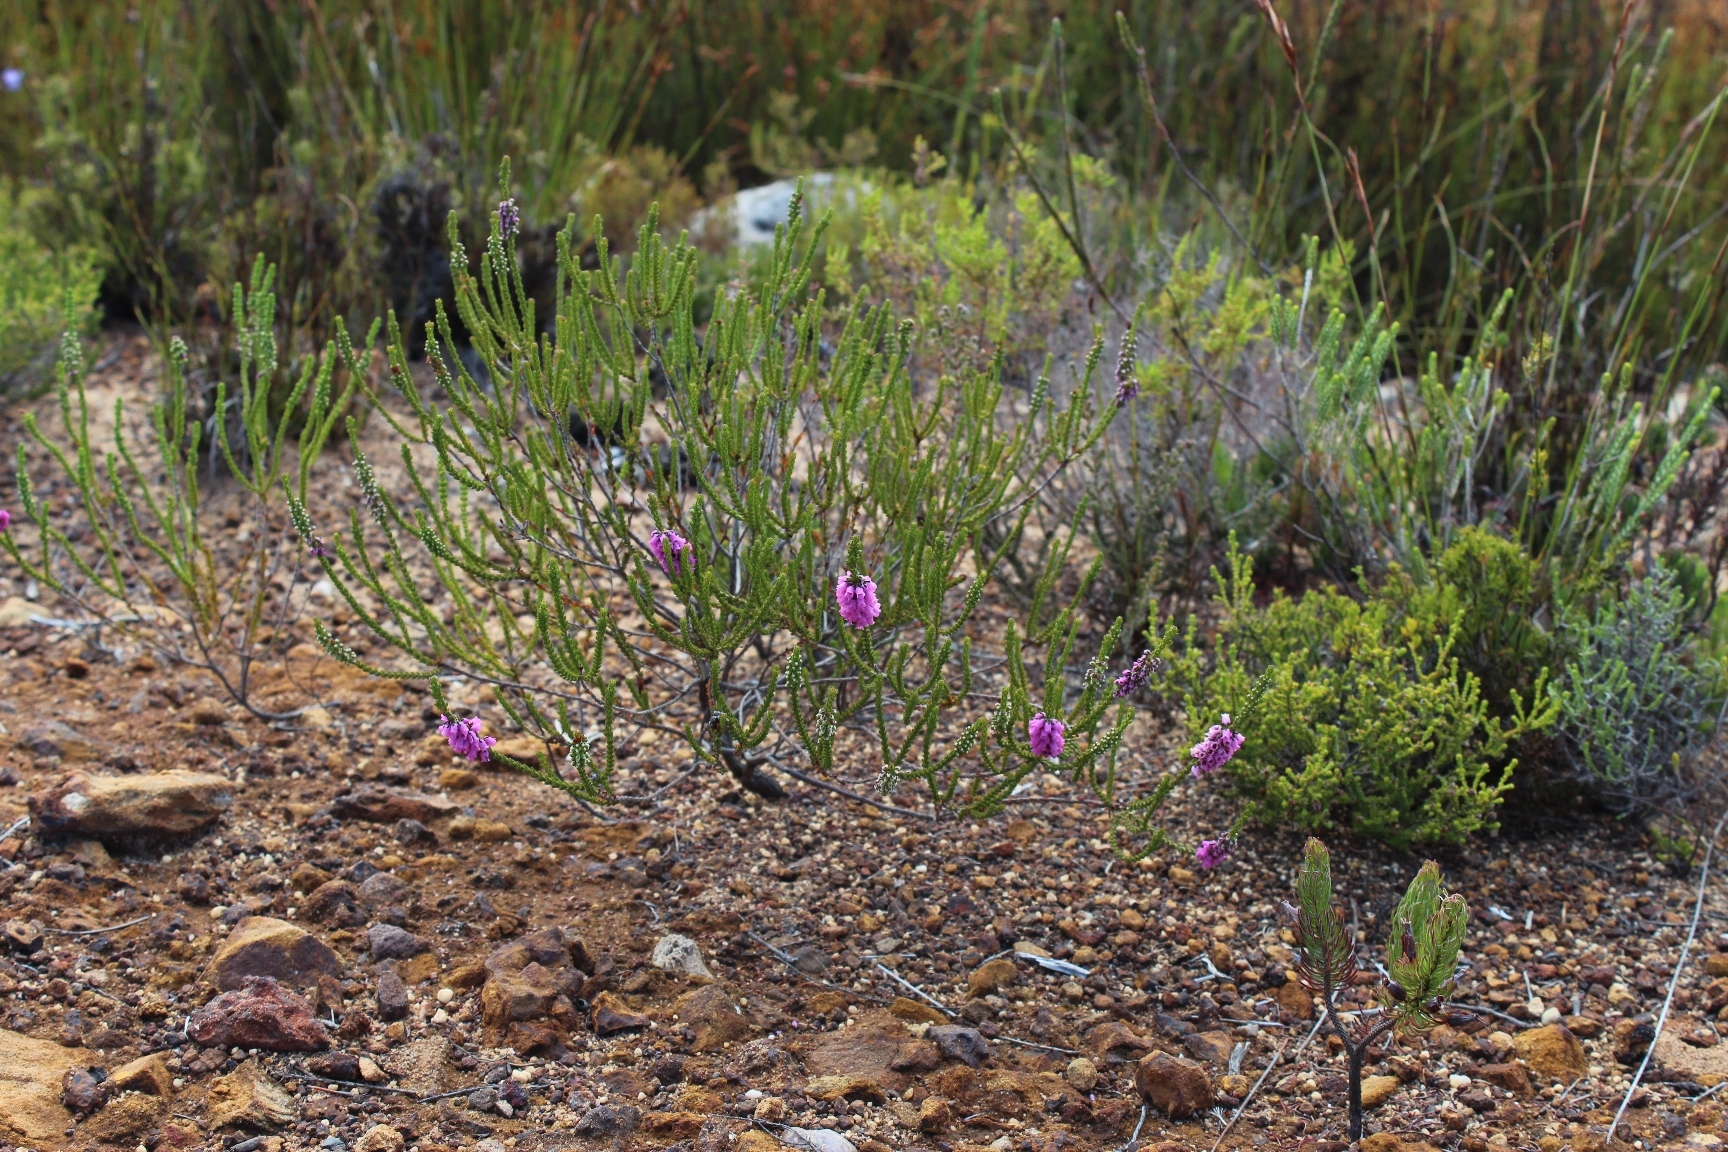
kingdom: Plantae
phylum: Tracheophyta
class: Magnoliopsida
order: Ericales
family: Ericaceae
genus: Erica
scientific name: Erica pulchella
